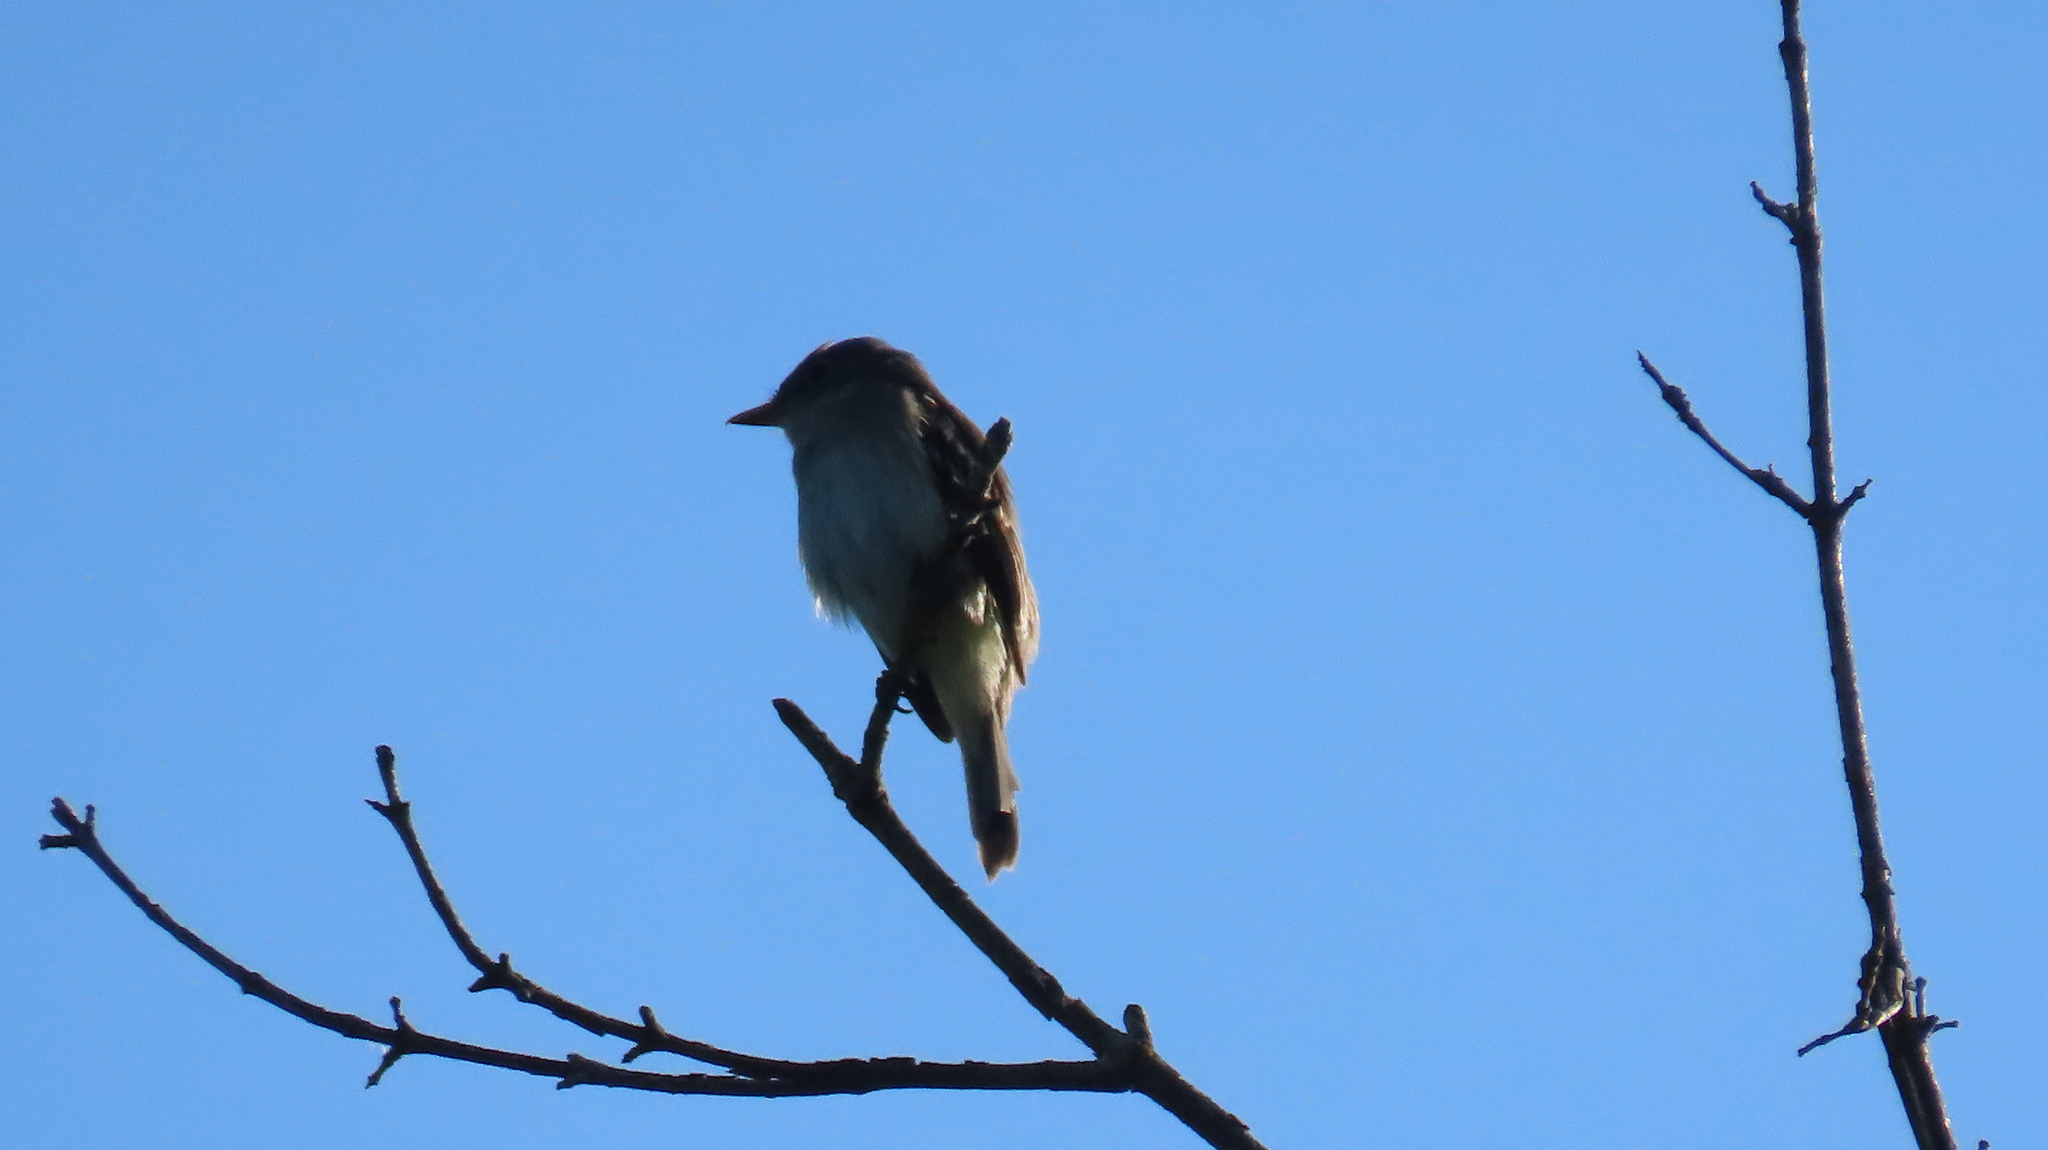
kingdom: Animalia
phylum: Chordata
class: Aves
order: Passeriformes
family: Tyrannidae
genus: Empidonax
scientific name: Empidonax alnorum
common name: Alder flycatcher
